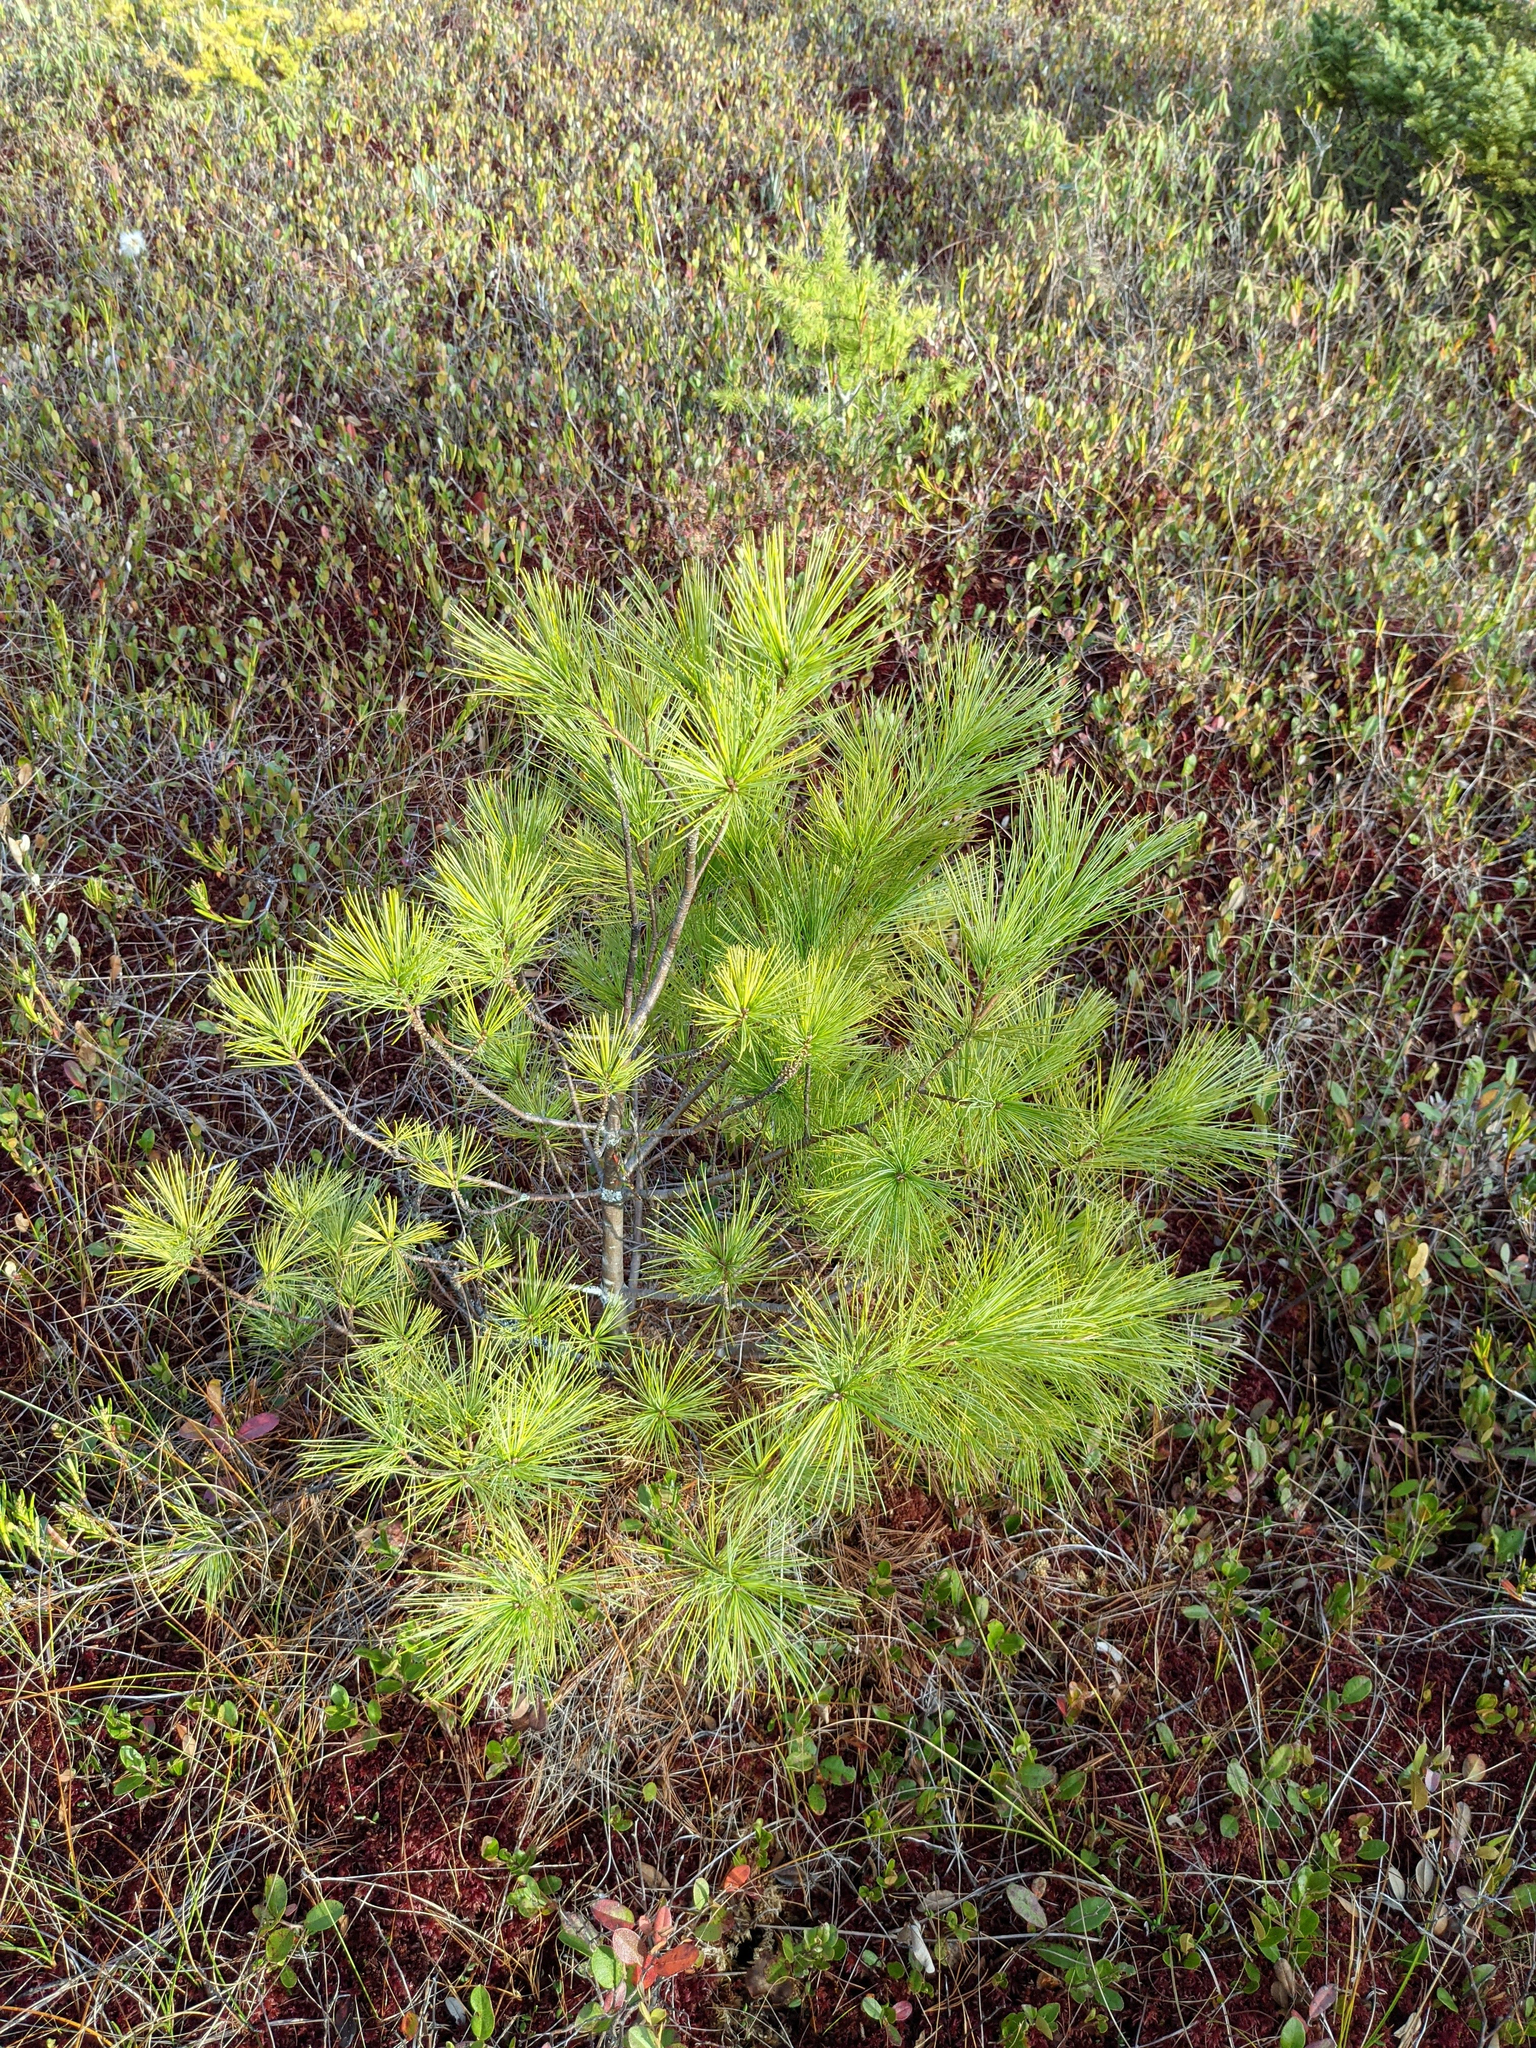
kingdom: Plantae
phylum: Tracheophyta
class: Pinopsida
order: Pinales
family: Pinaceae
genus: Pinus
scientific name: Pinus strobus
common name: Weymouth pine
